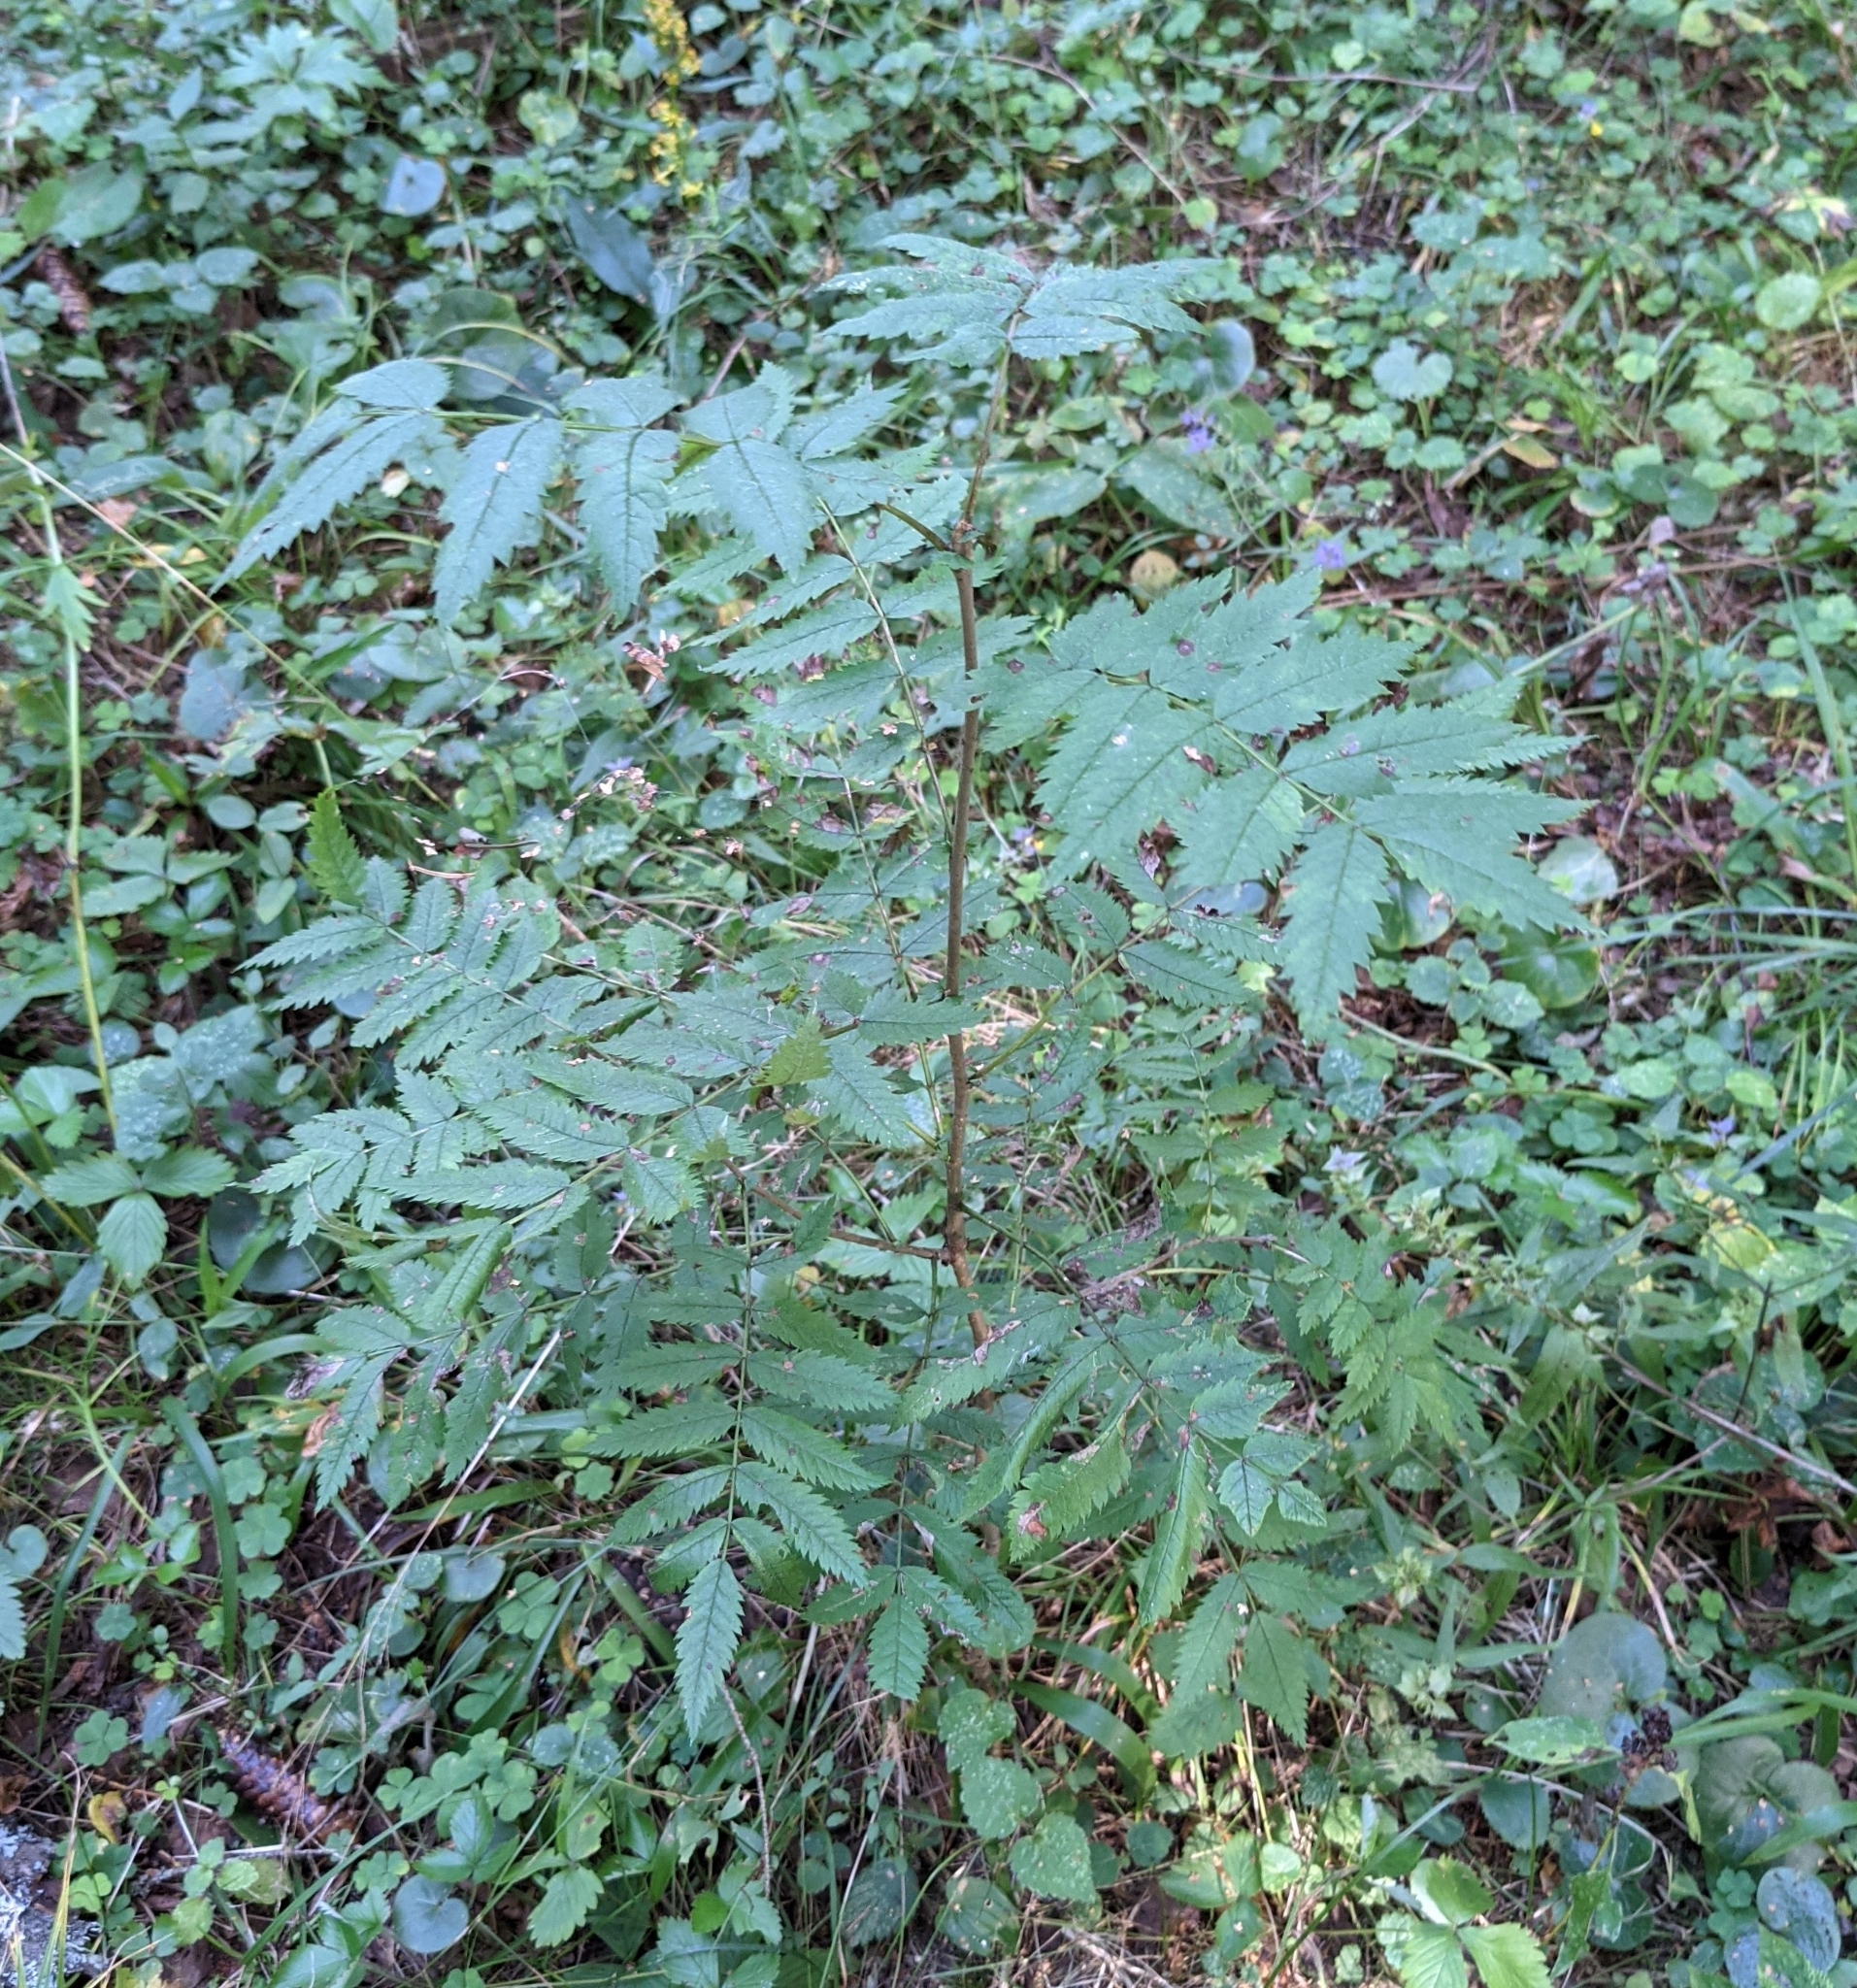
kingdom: Plantae
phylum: Tracheophyta
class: Magnoliopsida
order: Rosales
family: Rosaceae
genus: Sorbus
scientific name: Sorbus aucuparia
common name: Rowan
